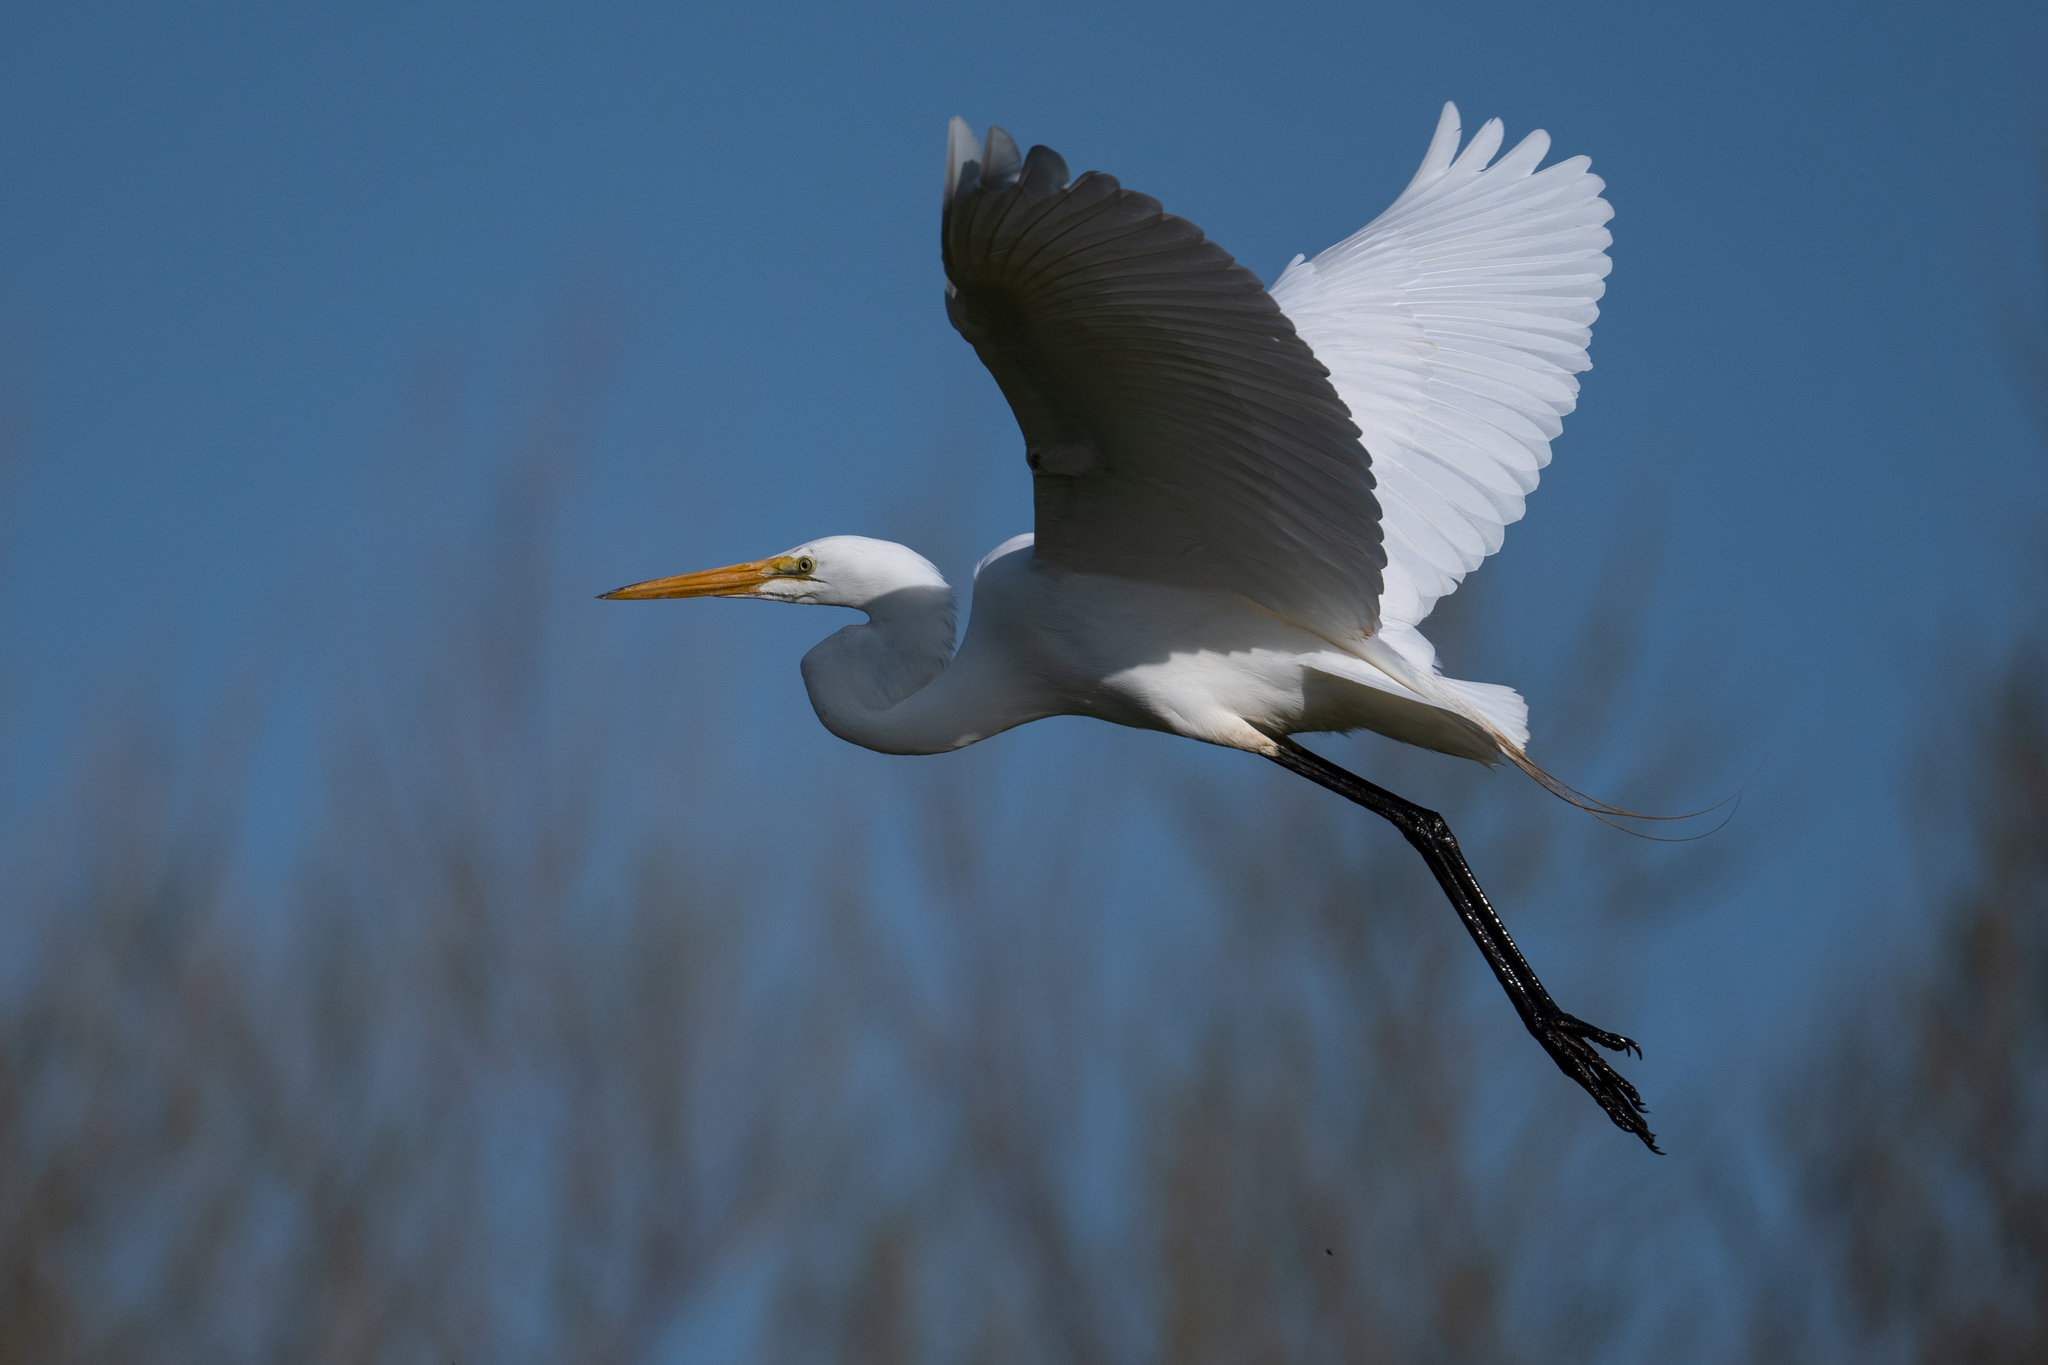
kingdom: Animalia
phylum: Chordata
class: Aves
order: Pelecaniformes
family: Ardeidae
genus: Ardea
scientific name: Ardea alba
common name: Great egret
